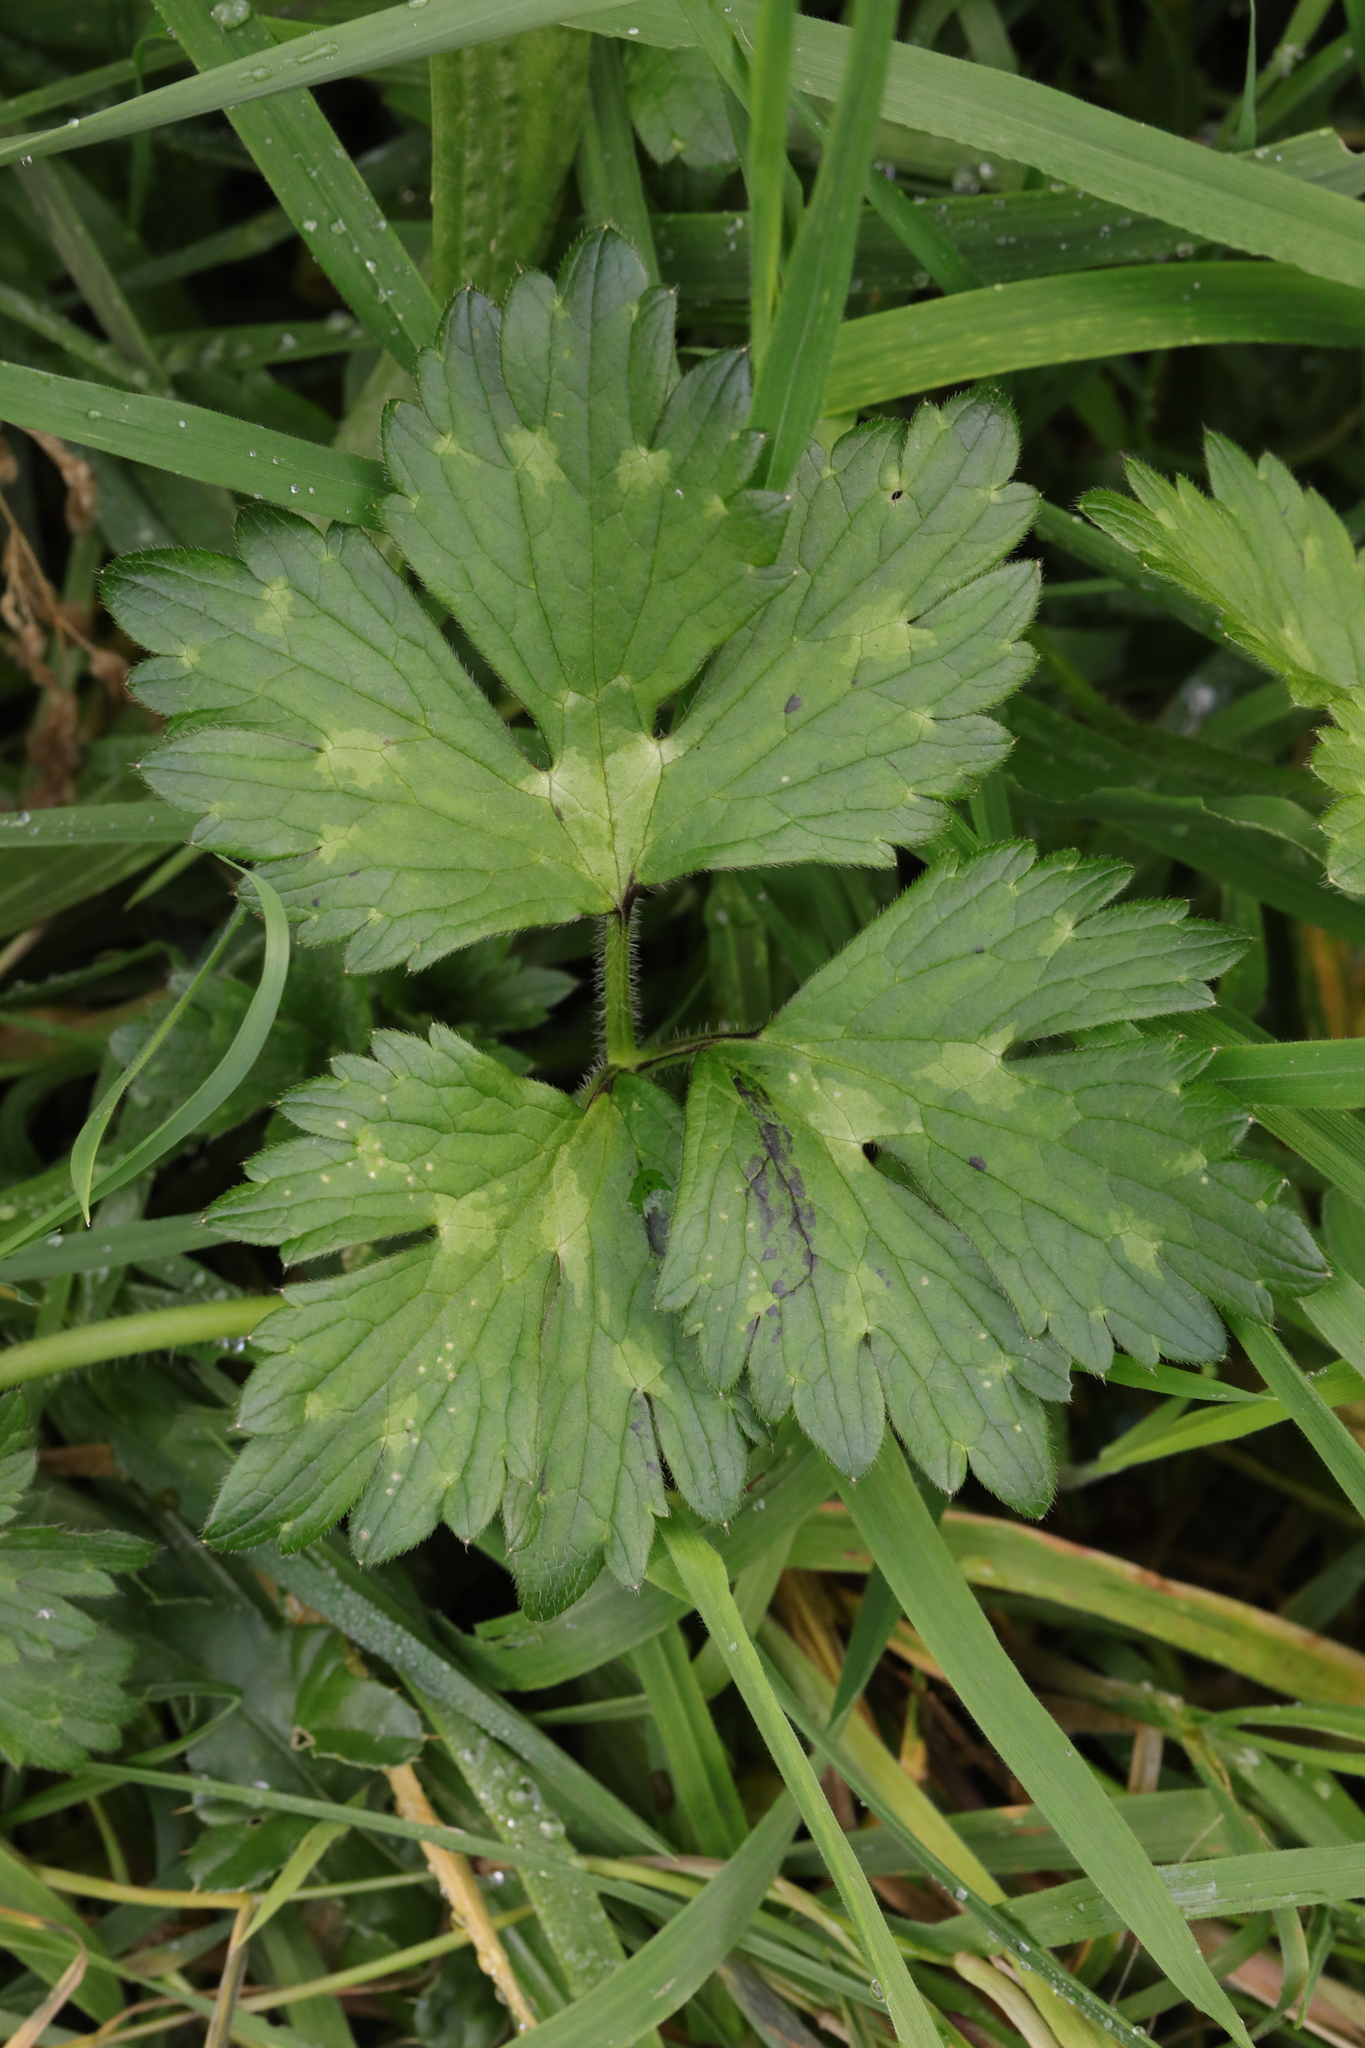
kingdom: Plantae
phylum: Tracheophyta
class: Magnoliopsida
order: Ranunculales
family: Ranunculaceae
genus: Ranunculus
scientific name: Ranunculus repens
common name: Creeping buttercup
